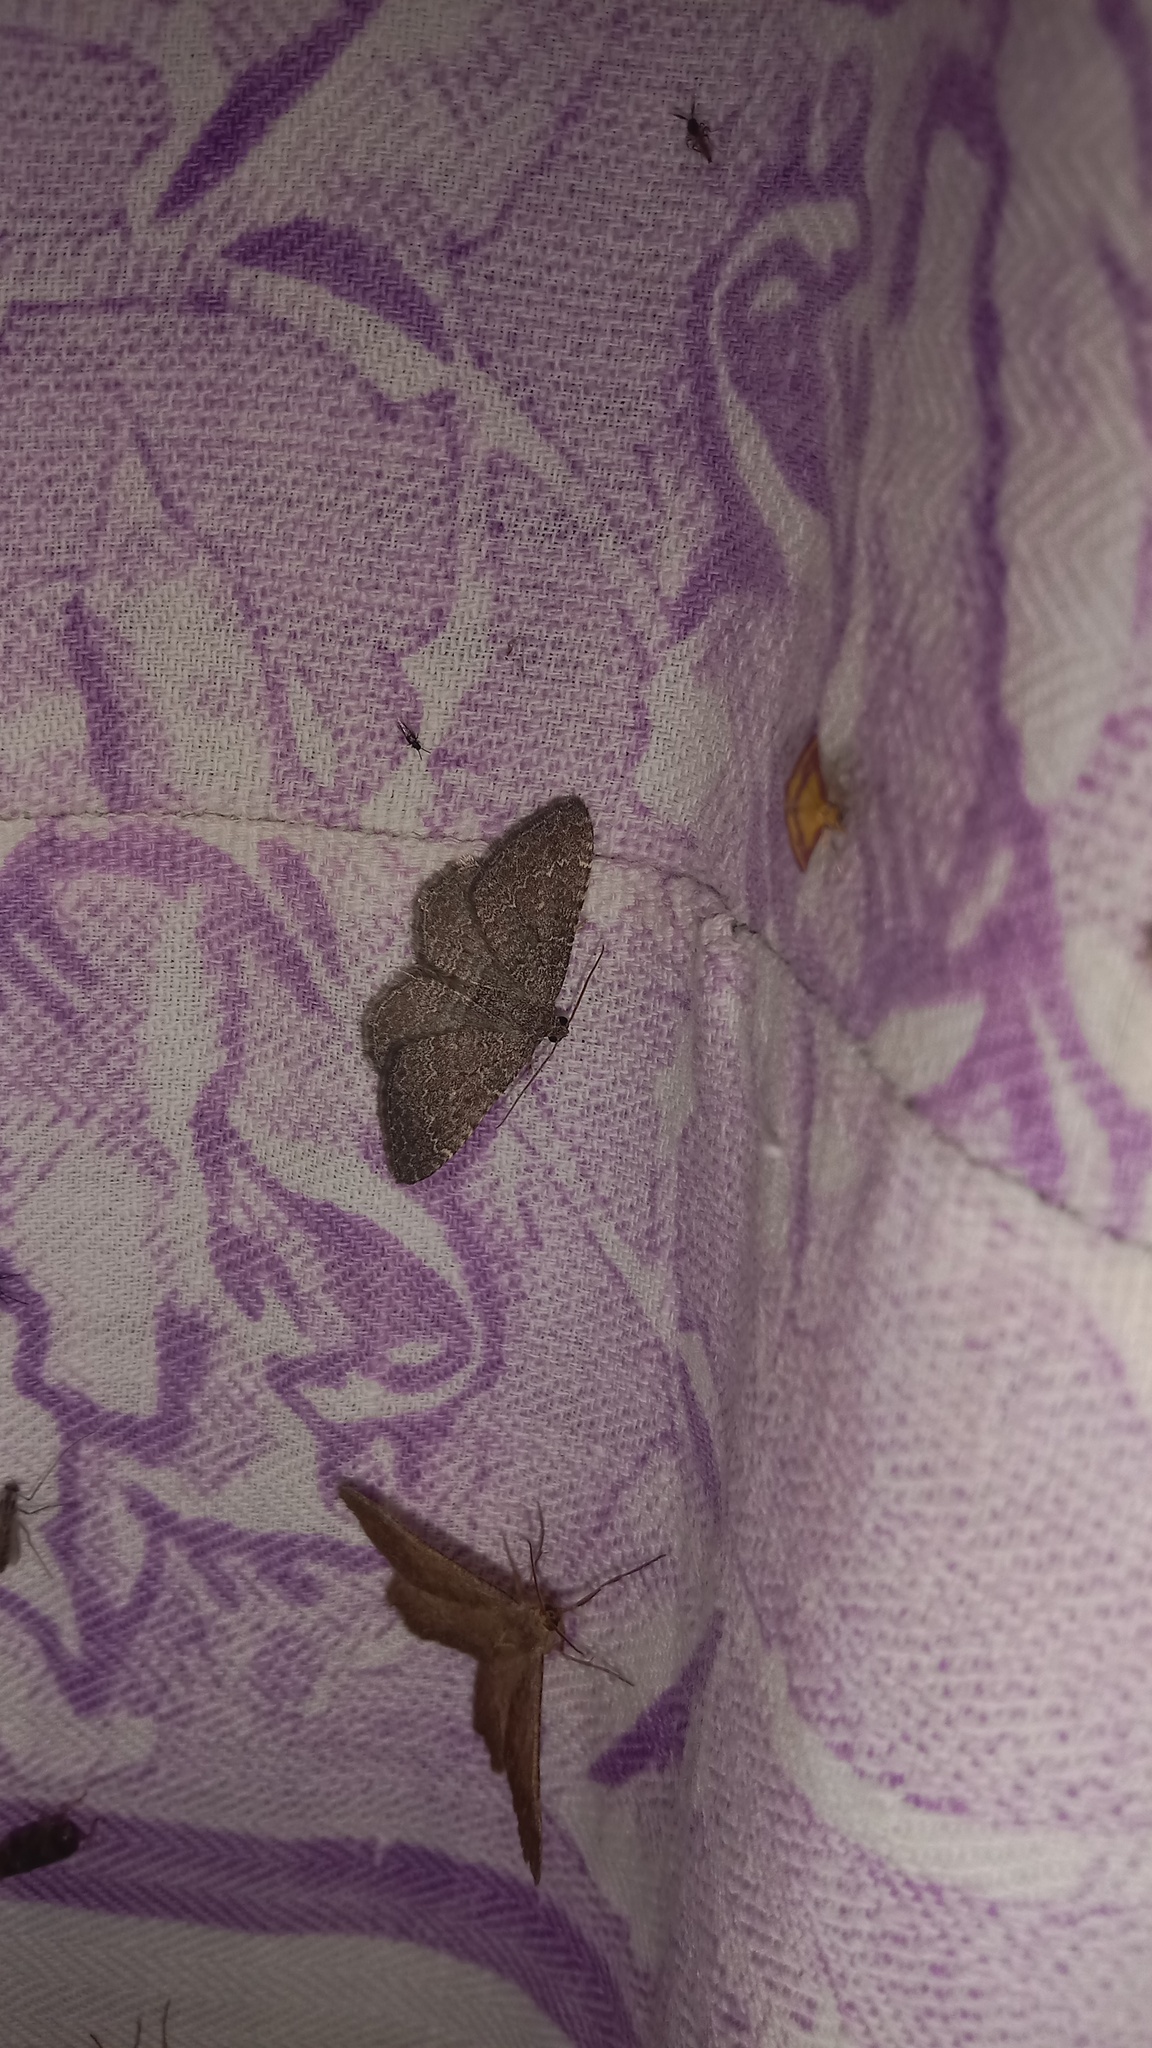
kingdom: Animalia
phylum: Arthropoda
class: Insecta
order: Lepidoptera
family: Geometridae
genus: Cataclysme
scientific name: Cataclysme riguata
